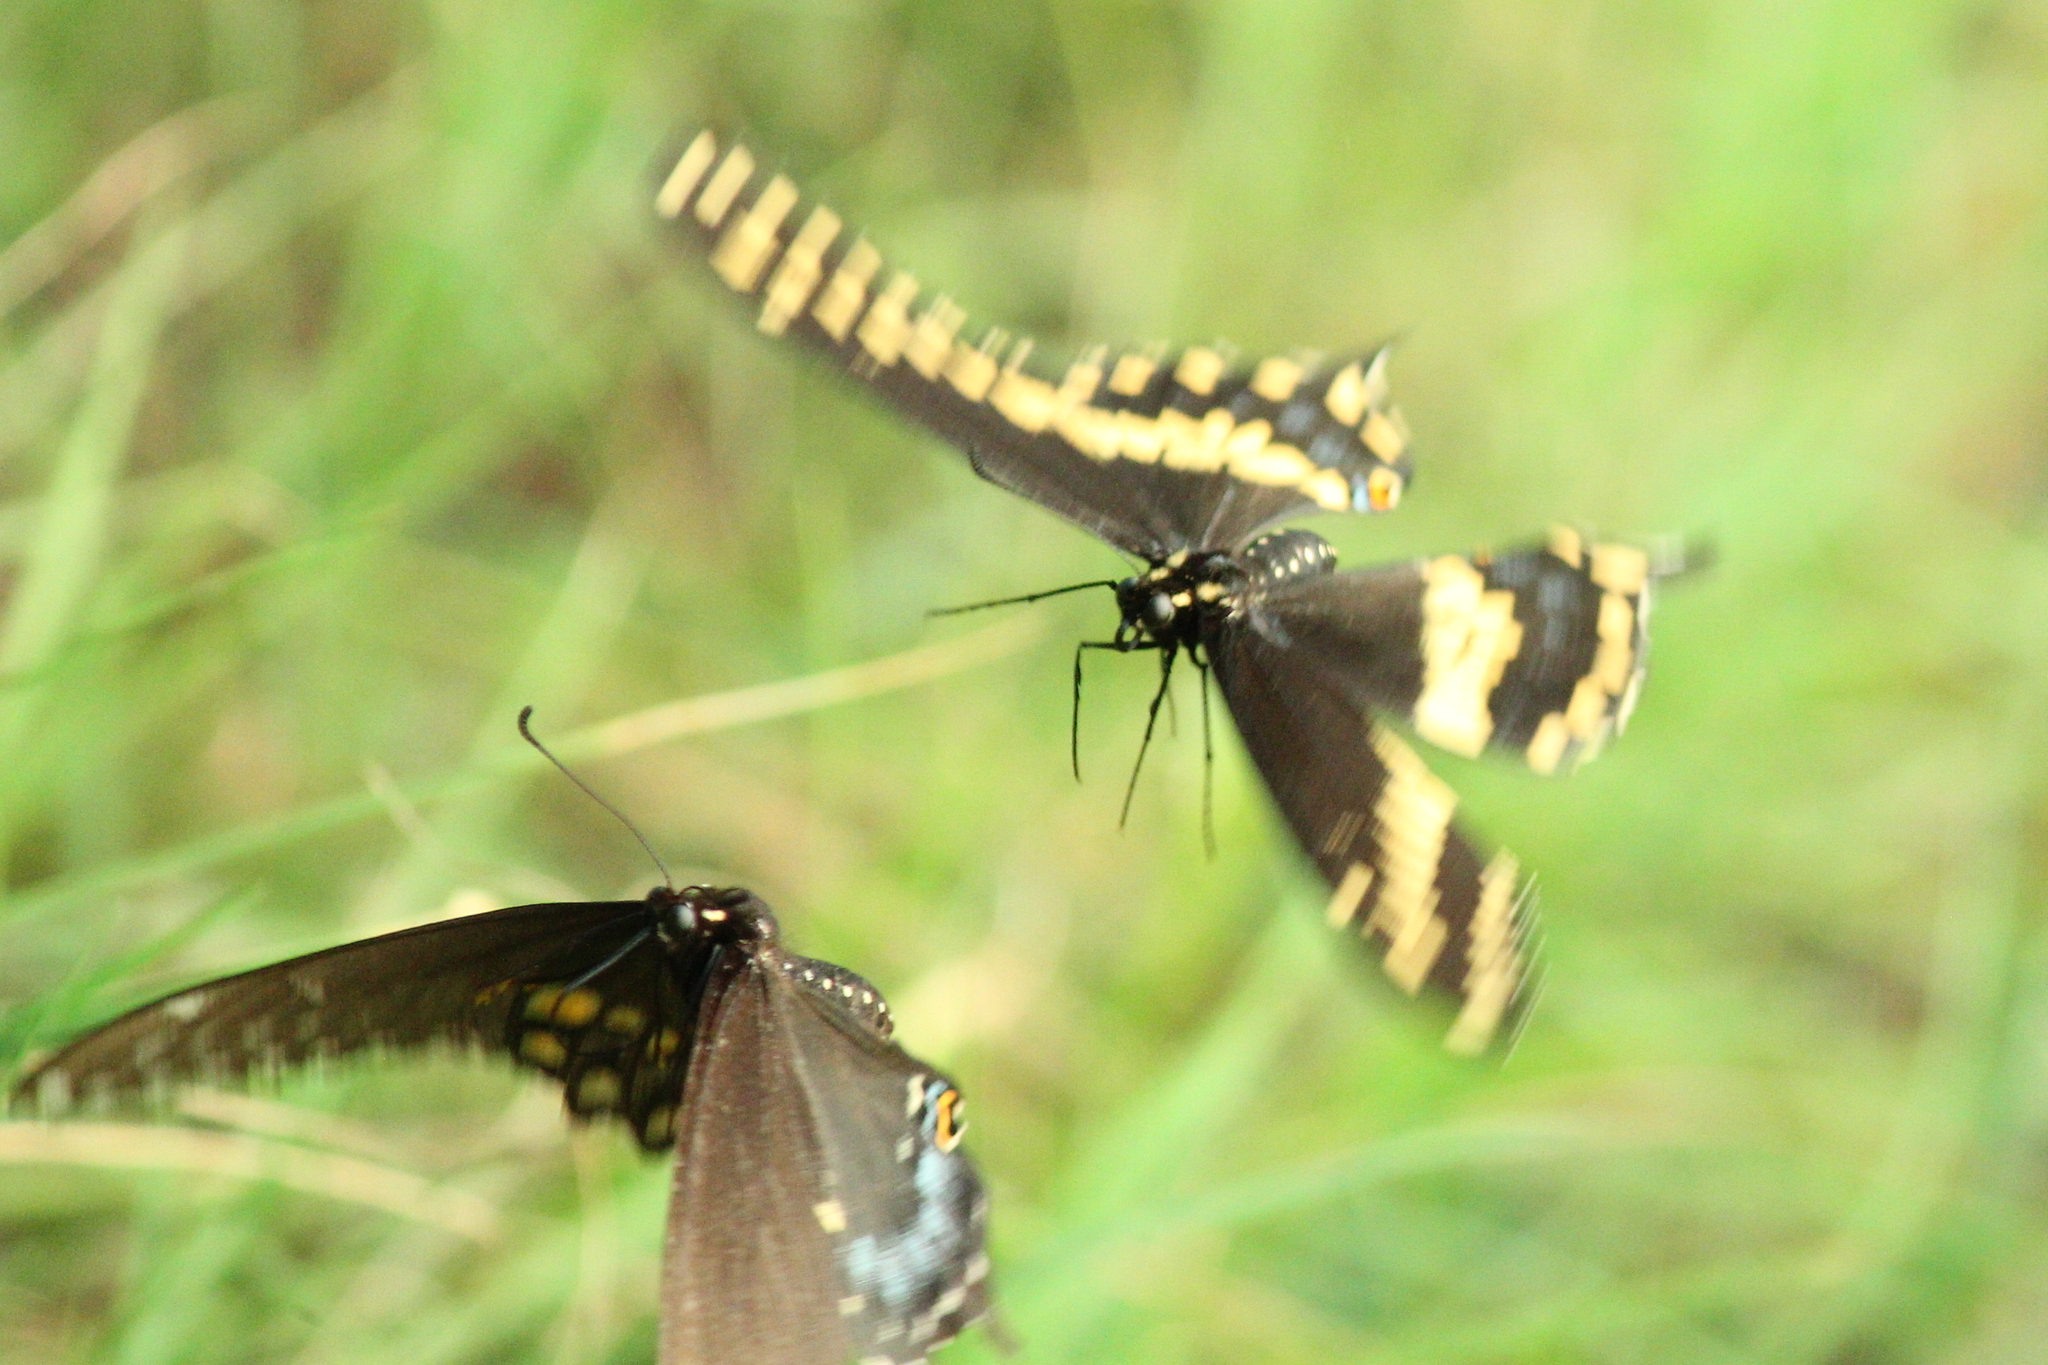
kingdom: Animalia
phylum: Arthropoda
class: Insecta
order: Lepidoptera
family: Papilionidae
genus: Papilio
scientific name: Papilio polyxenes
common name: Black swallowtail
